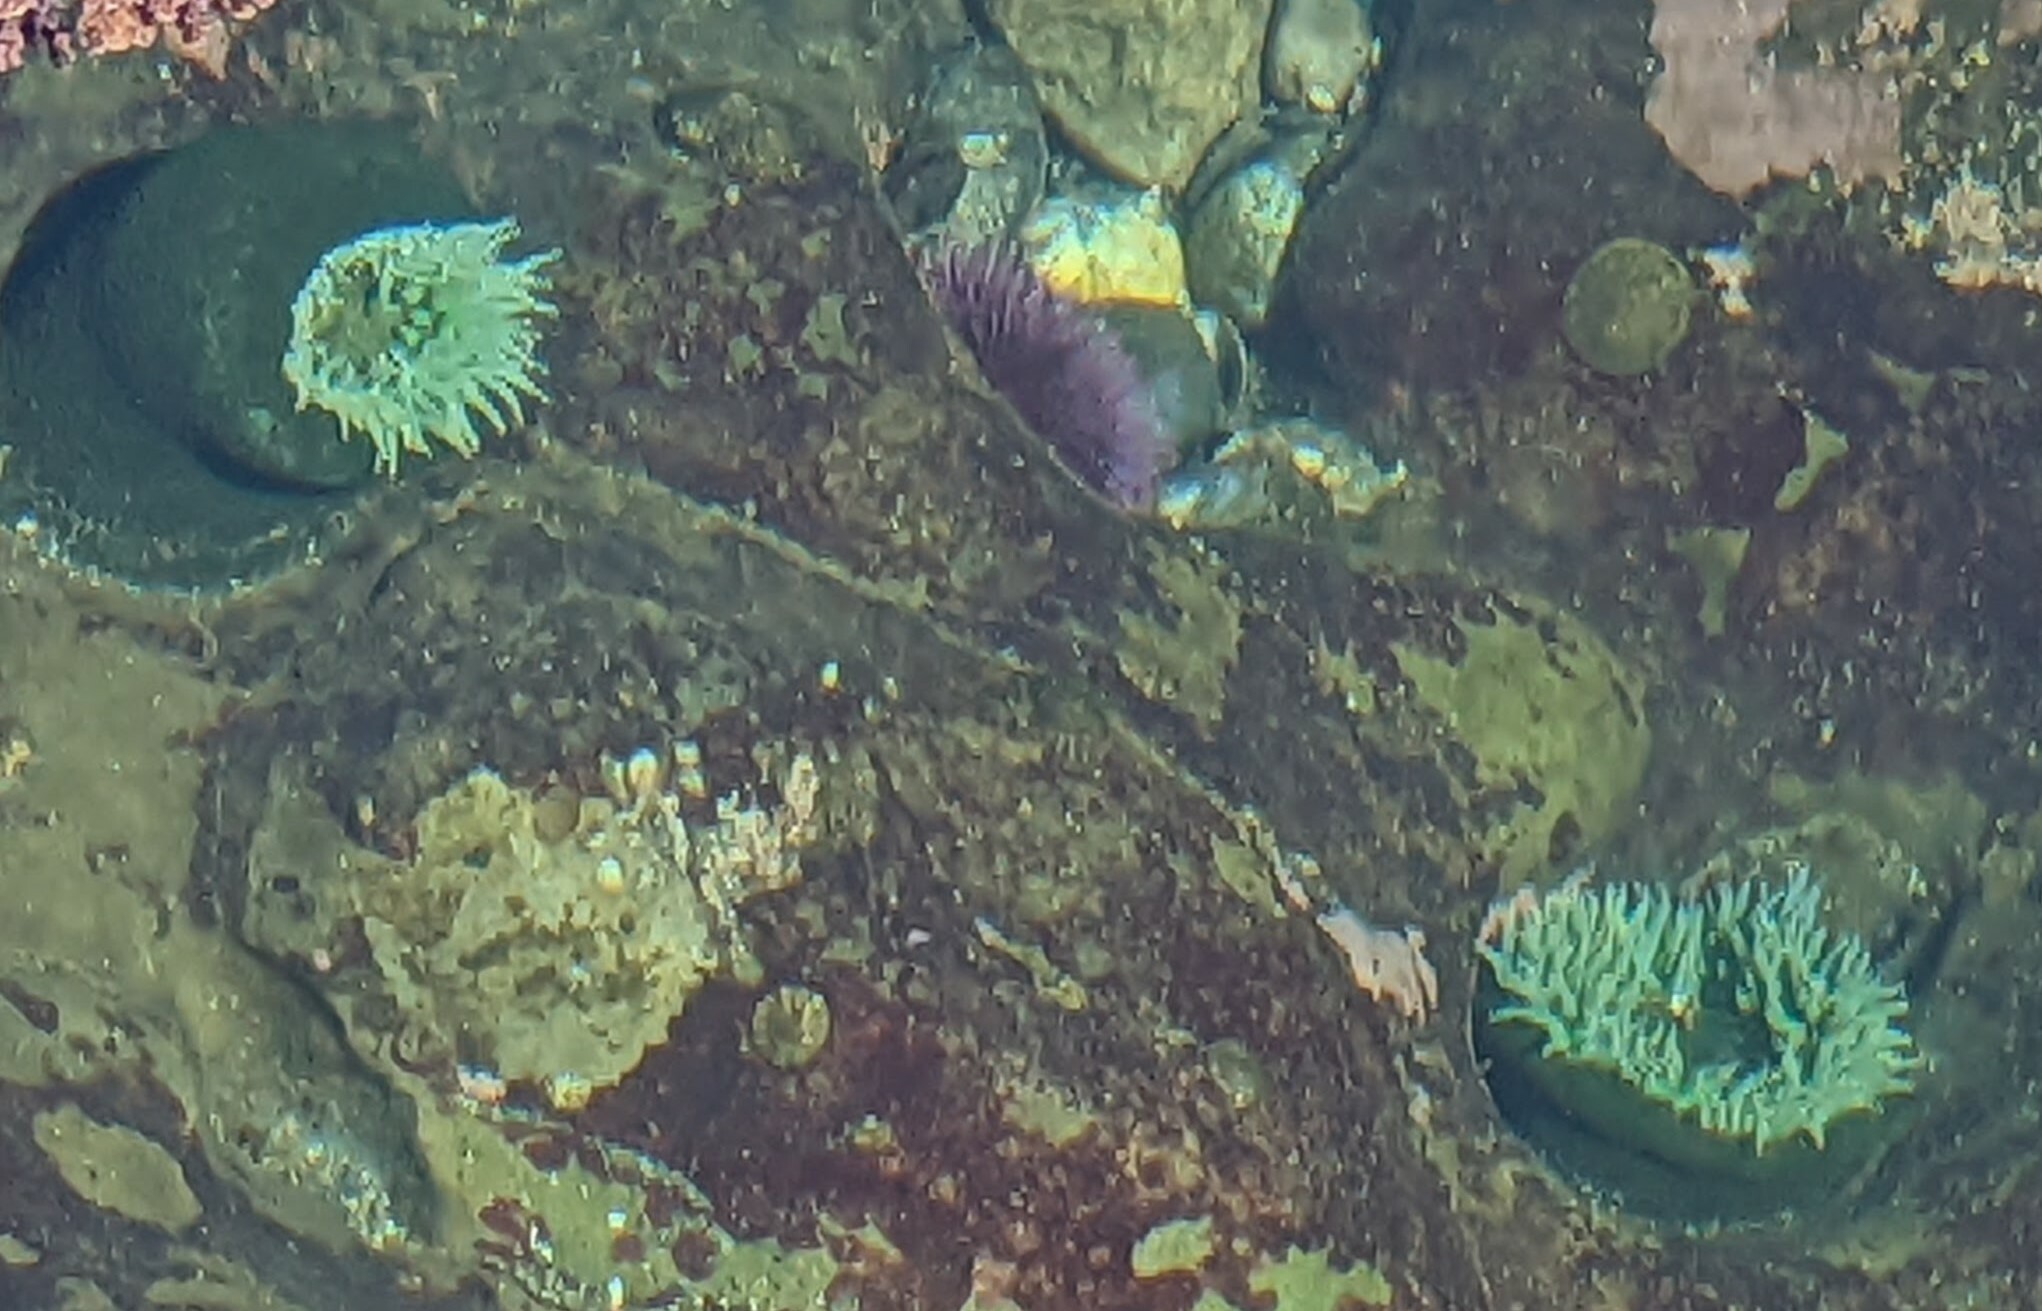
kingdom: Animalia
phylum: Cnidaria
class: Anthozoa
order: Actiniaria
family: Actiniidae
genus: Anthopleura
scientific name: Anthopleura xanthogrammica
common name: Giant green anemone
